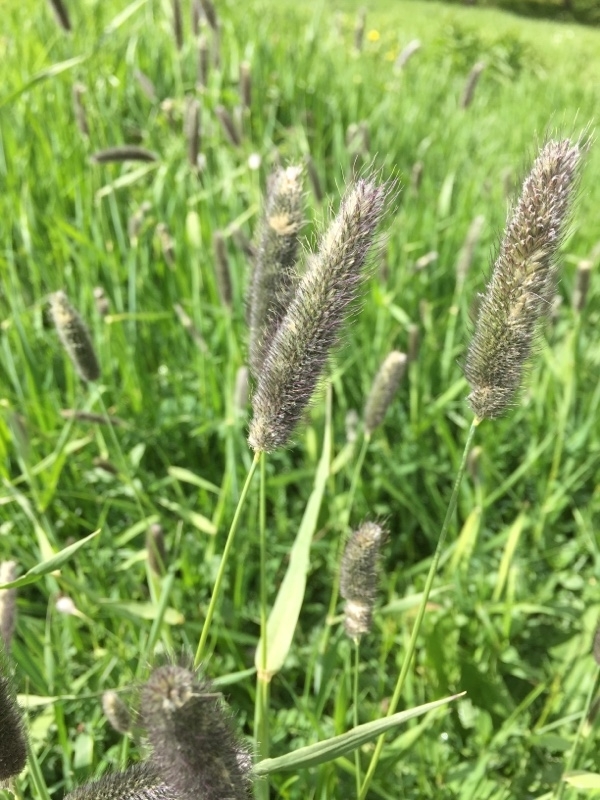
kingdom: Plantae
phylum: Tracheophyta
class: Liliopsida
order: Poales
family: Poaceae
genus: Phleum
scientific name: Phleum alpinum
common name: Alpine cat's-tail
